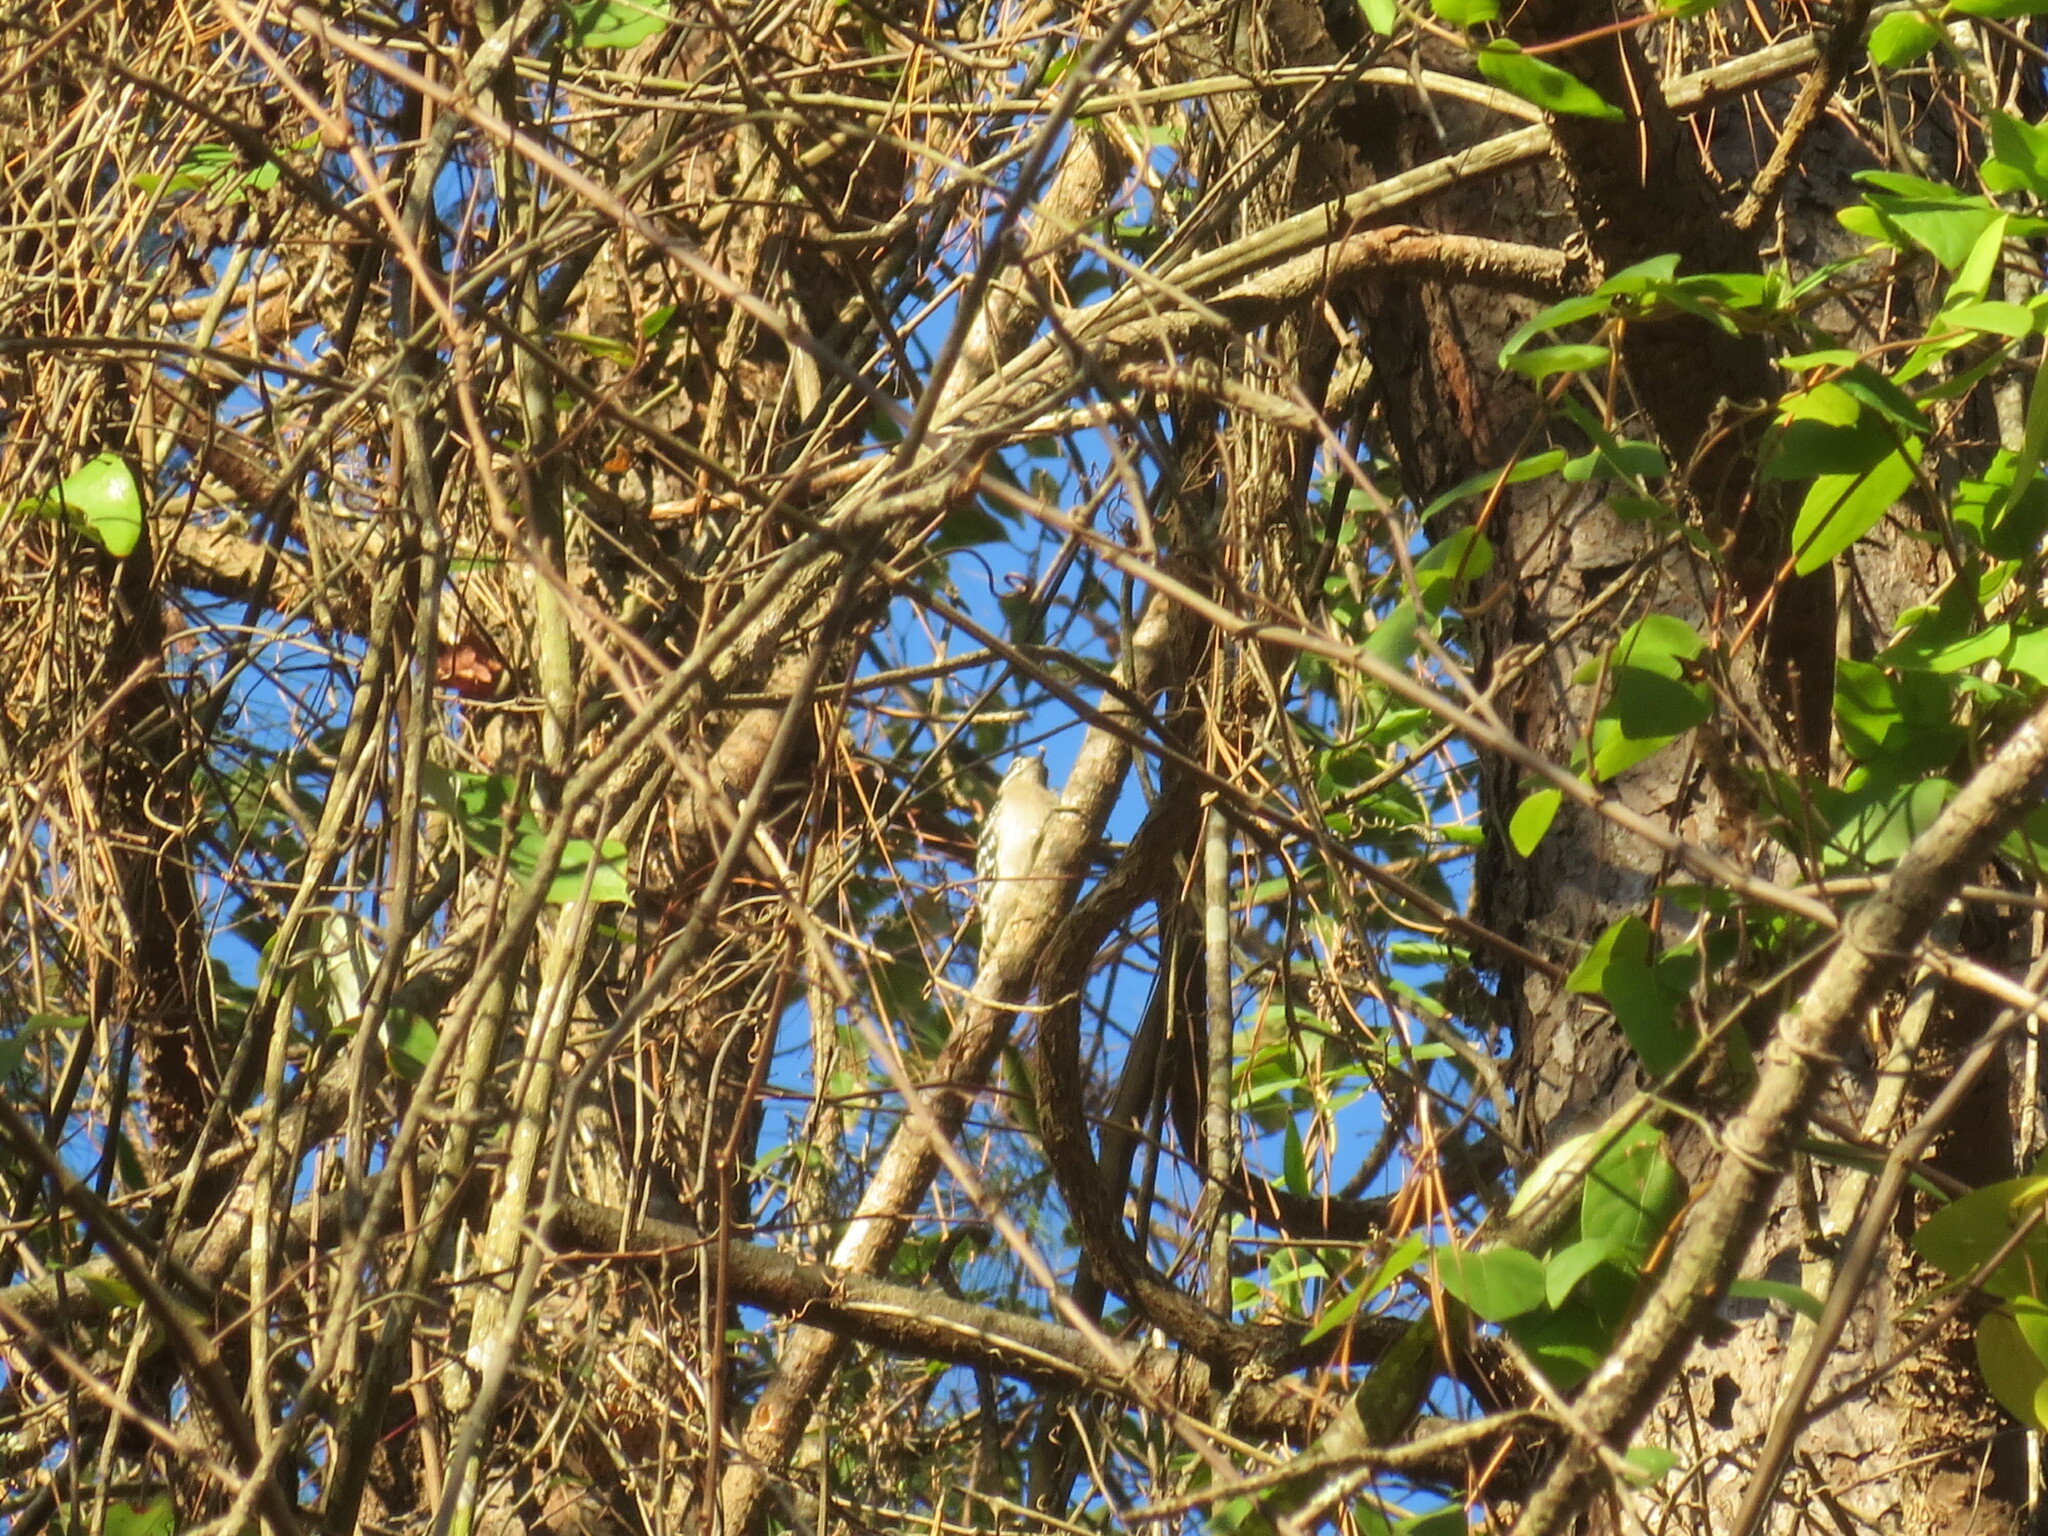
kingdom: Animalia
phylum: Chordata
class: Aves
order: Piciformes
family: Picidae
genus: Dryobates
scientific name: Dryobates pubescens
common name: Downy woodpecker
